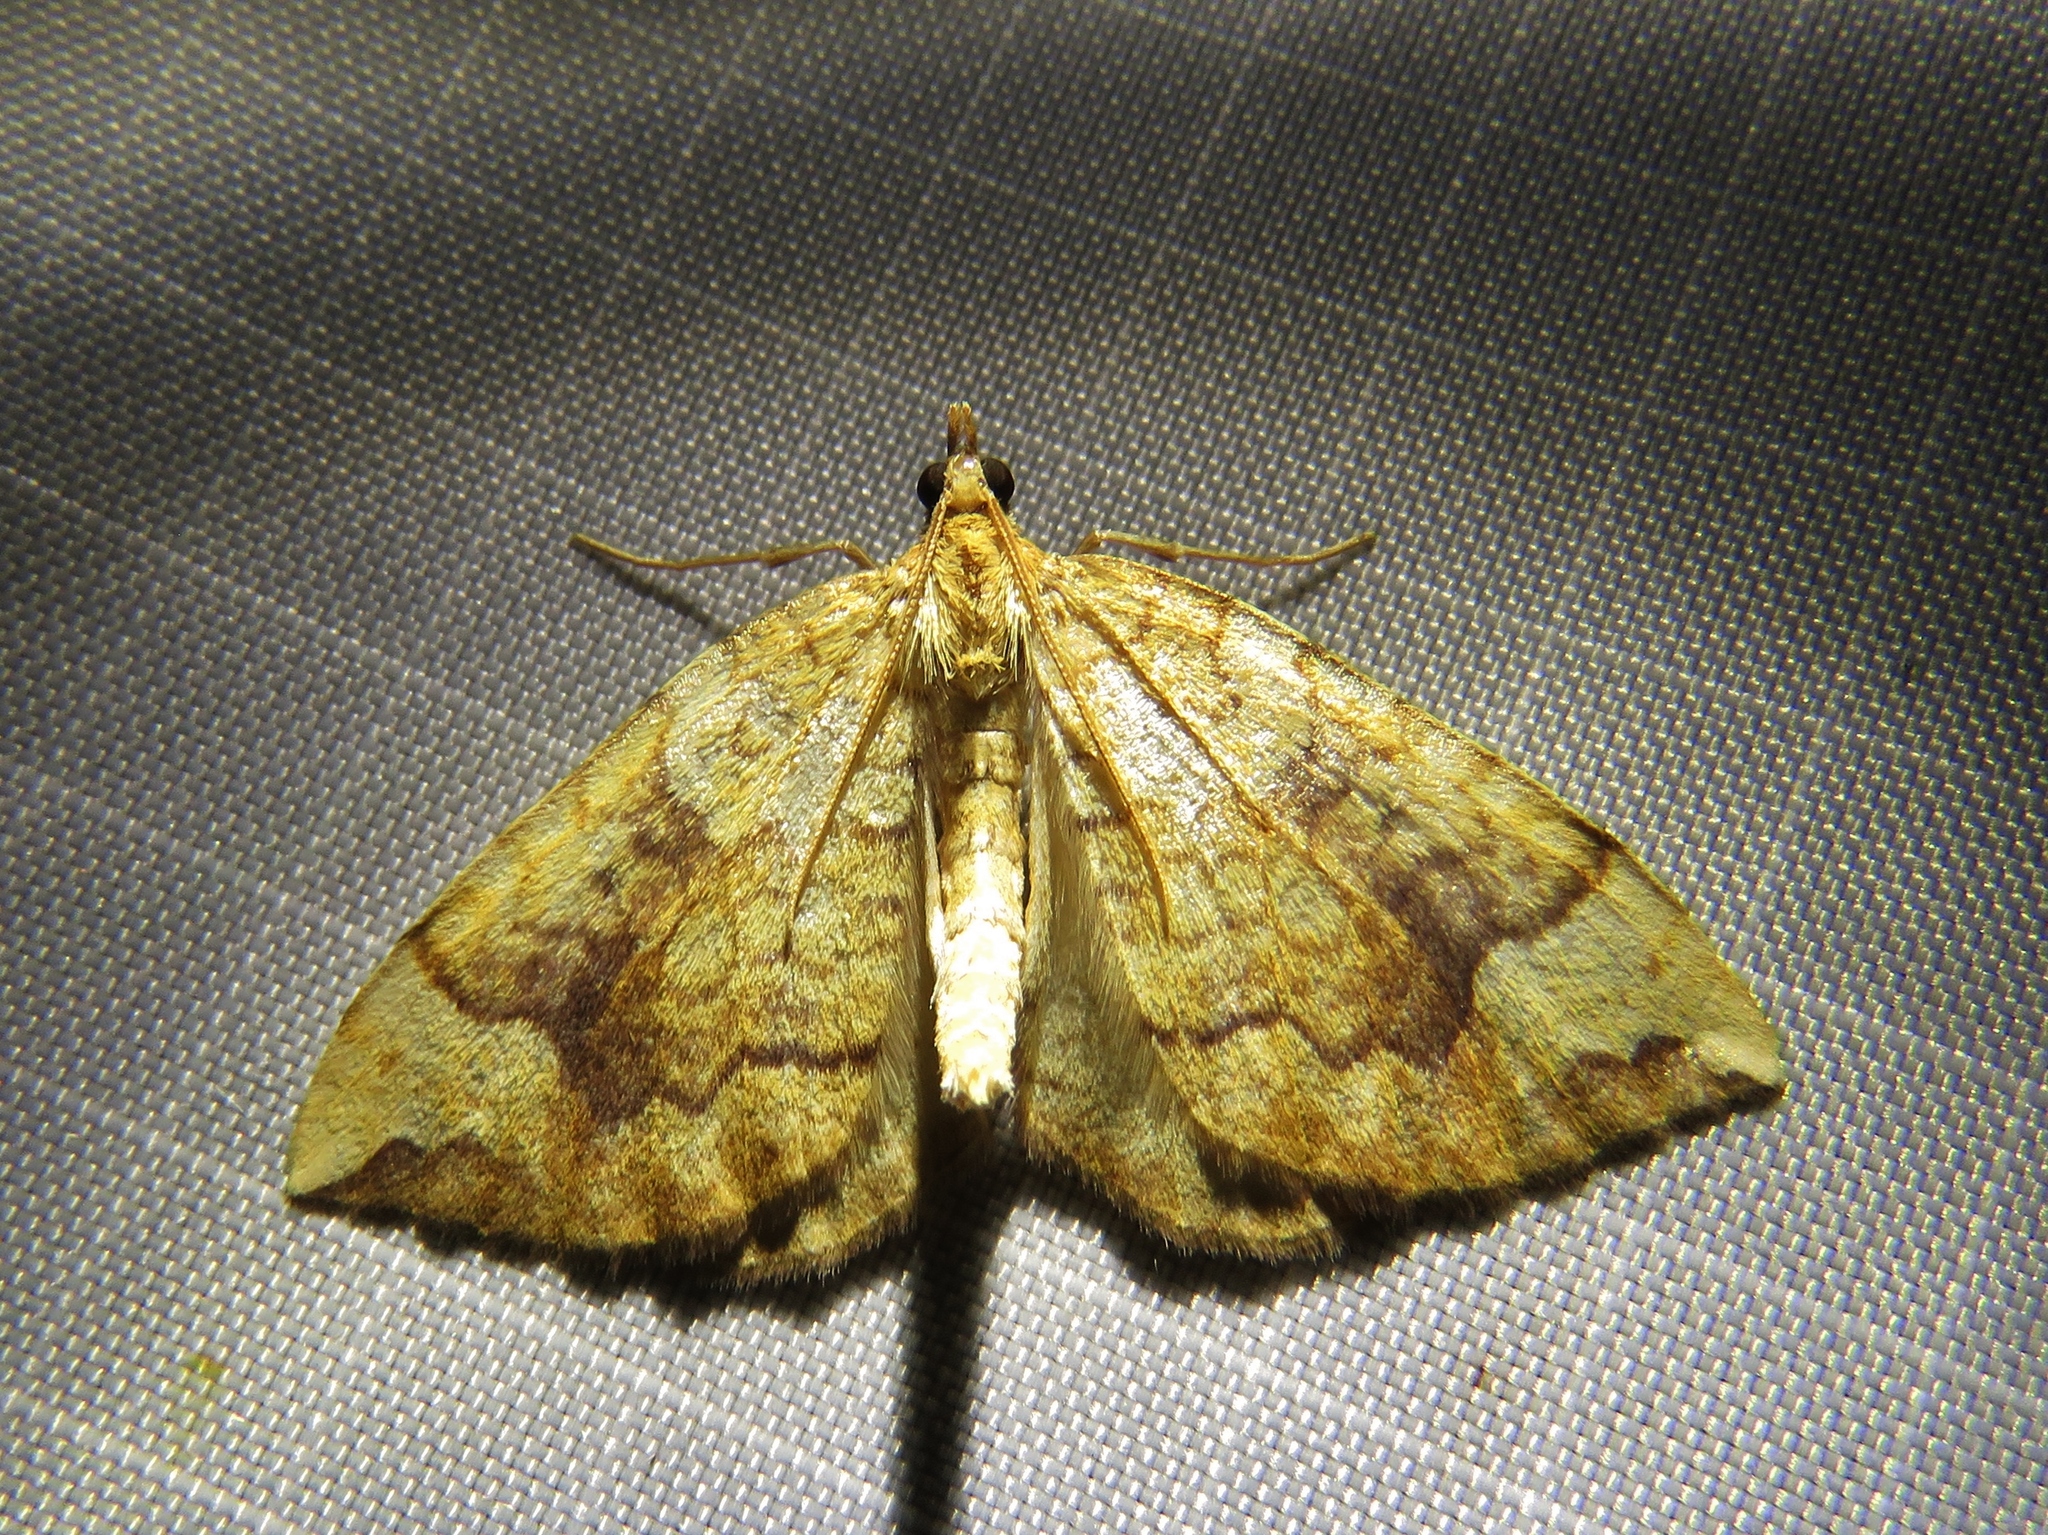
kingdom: Animalia
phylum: Arthropoda
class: Insecta
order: Lepidoptera
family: Geometridae
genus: Eulithis
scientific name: Eulithis populata
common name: Northern spinach
